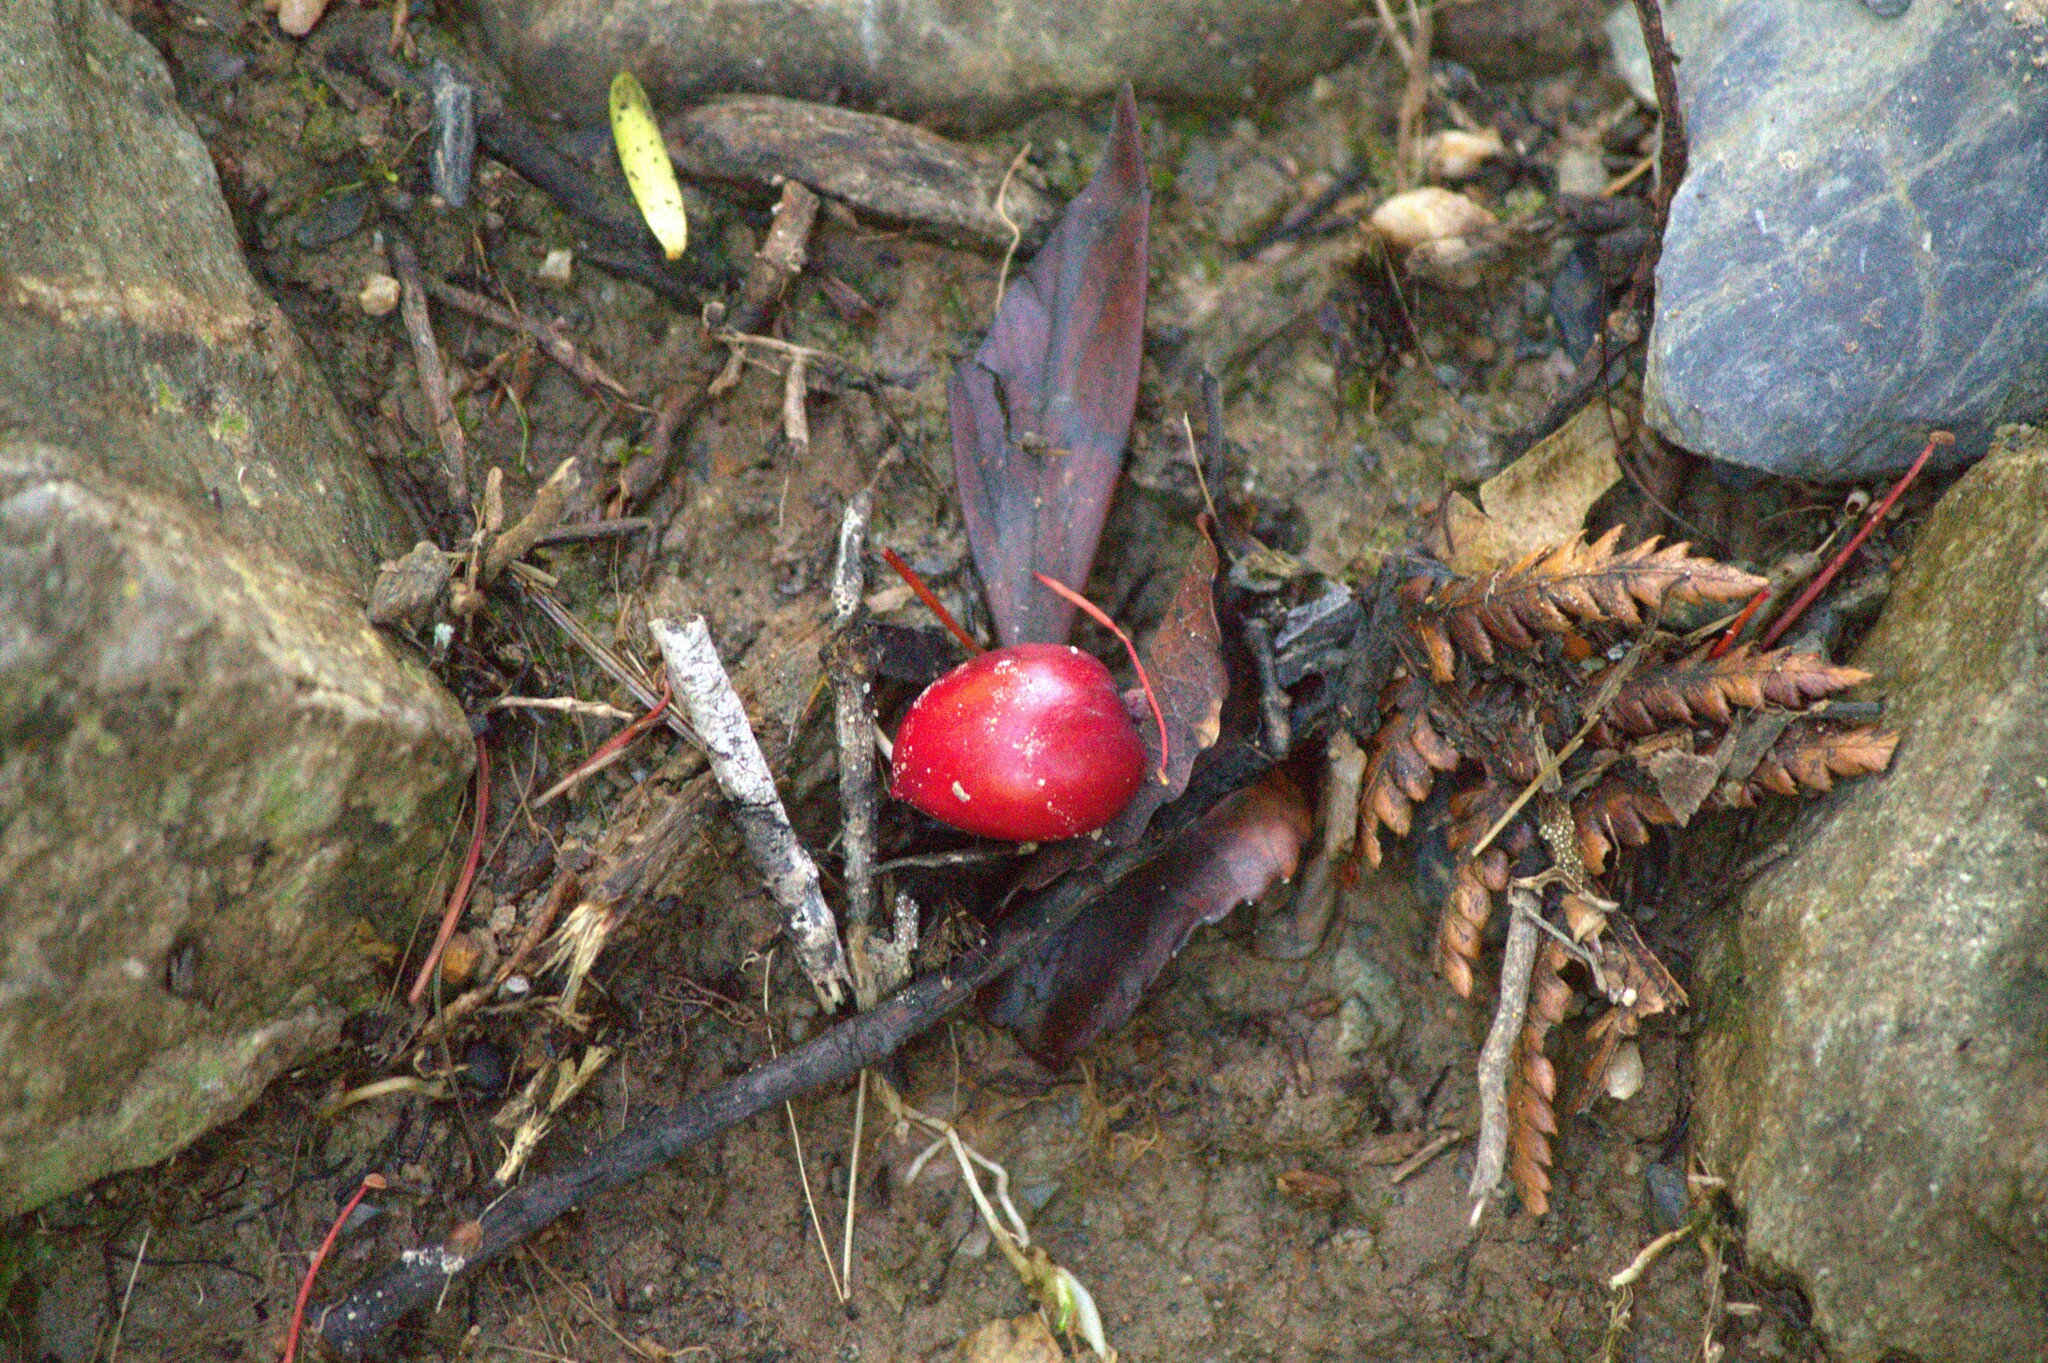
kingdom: Plantae
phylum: Tracheophyta
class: Pinopsida
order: Pinales
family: Podocarpaceae
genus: Prumnopitys
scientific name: Prumnopitys ferruginea
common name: Brown pine
